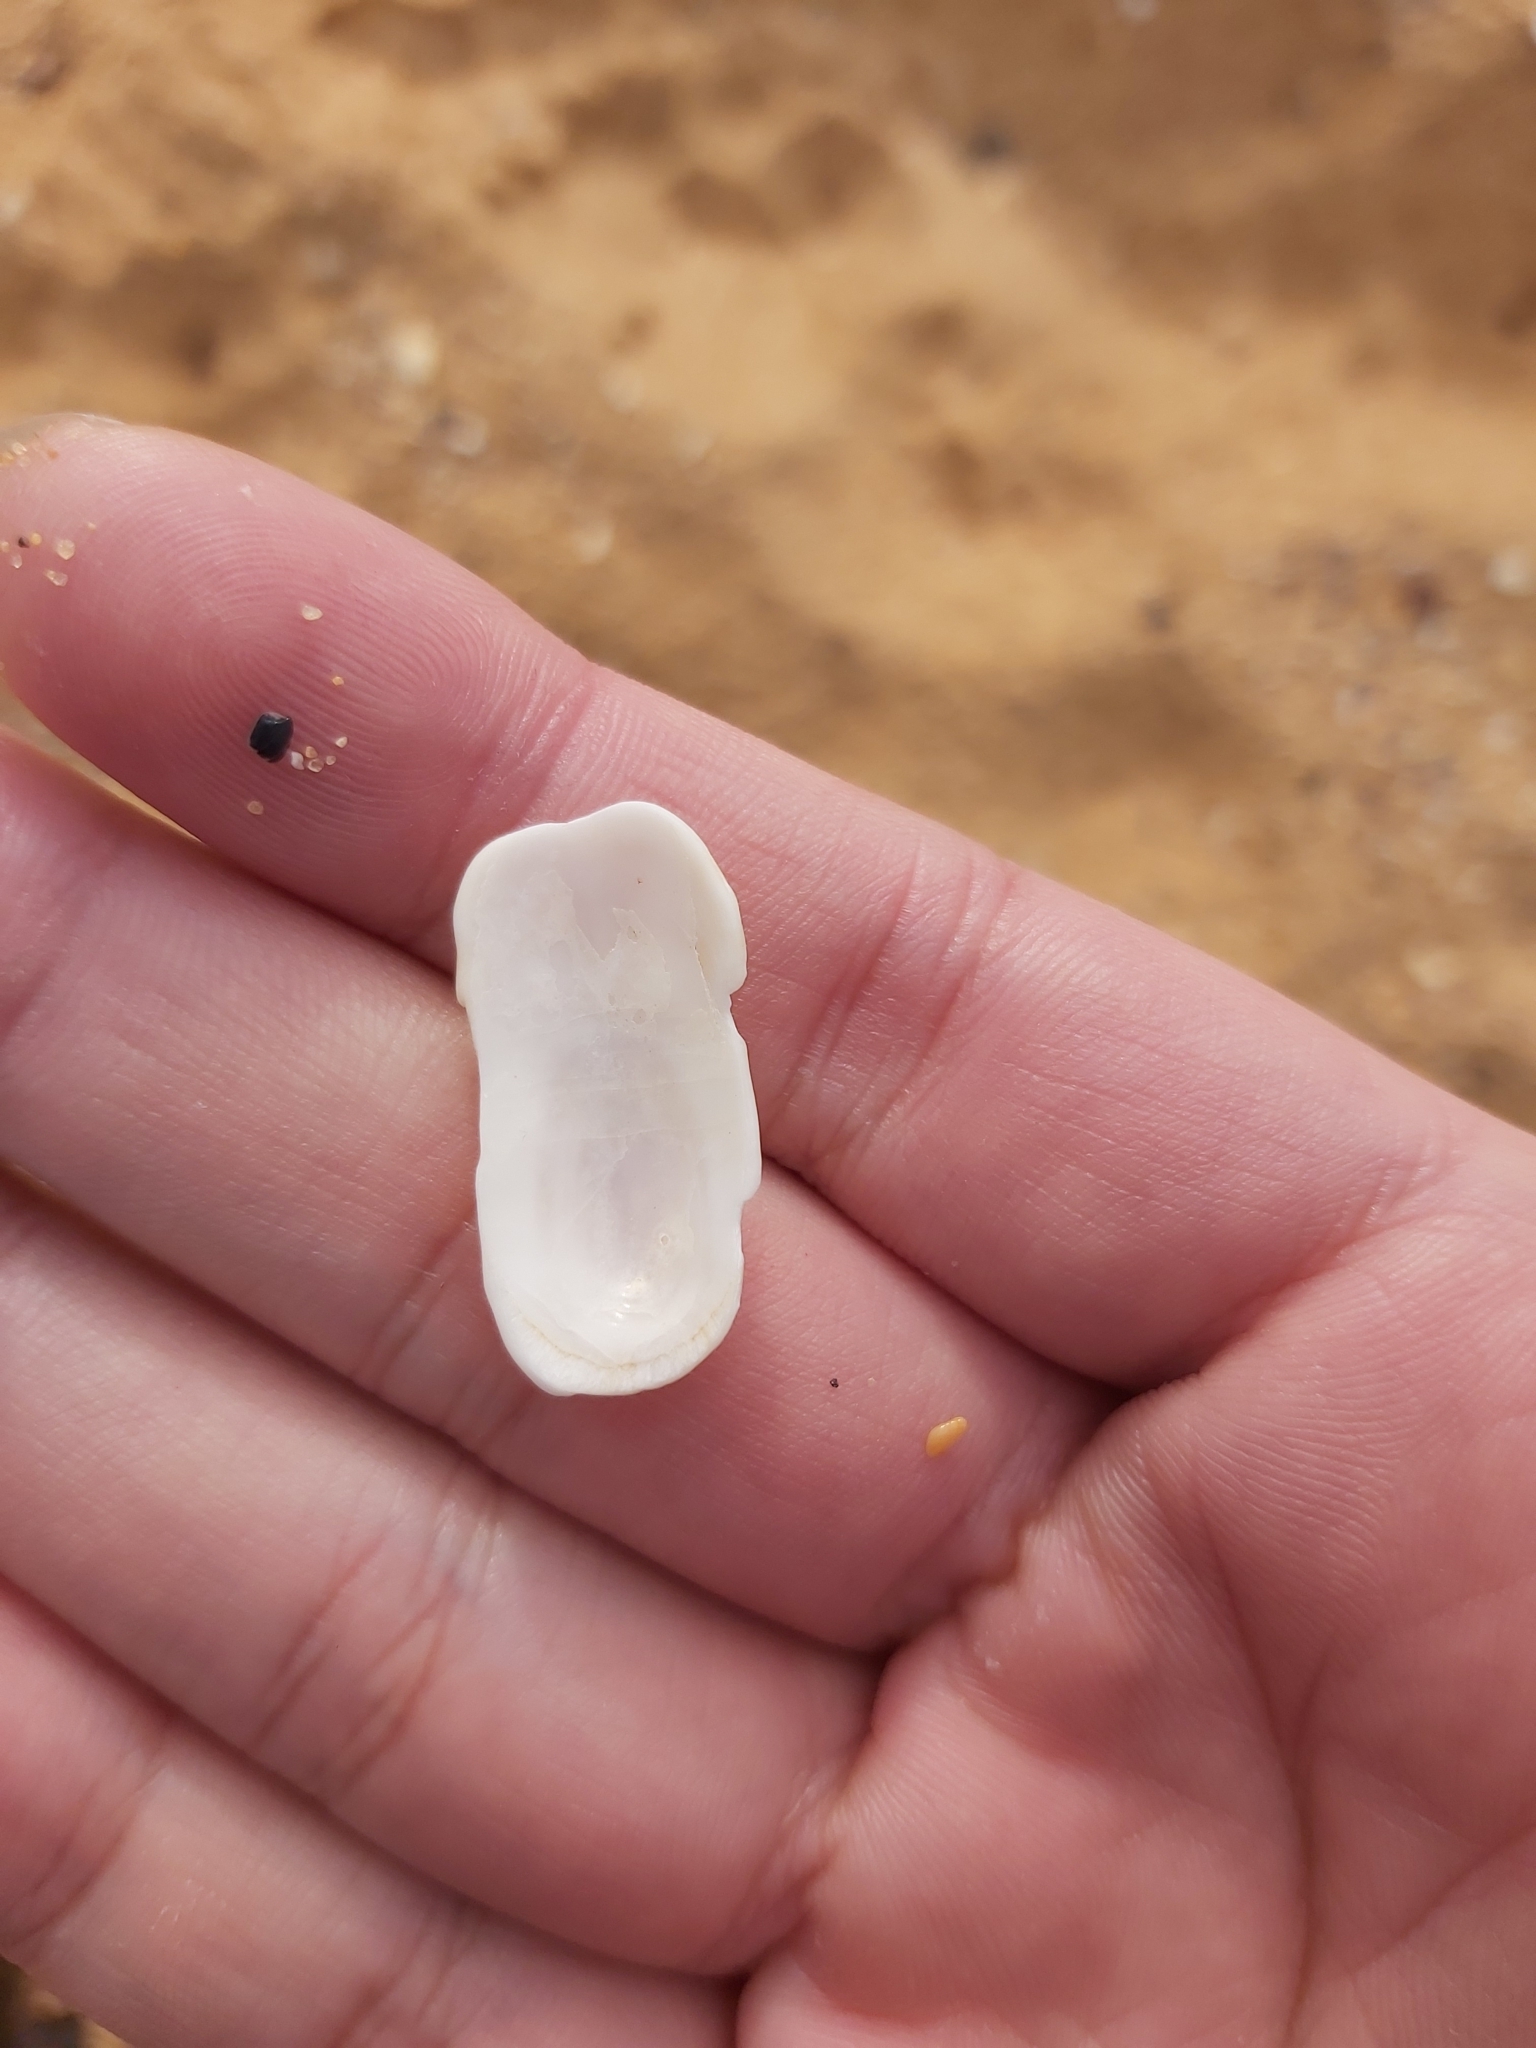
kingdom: Animalia
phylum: Mollusca
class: Gastropoda
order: Lepetellida
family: Fissurellidae
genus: Scutus
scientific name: Scutus antipodes
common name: Duckbill shell
